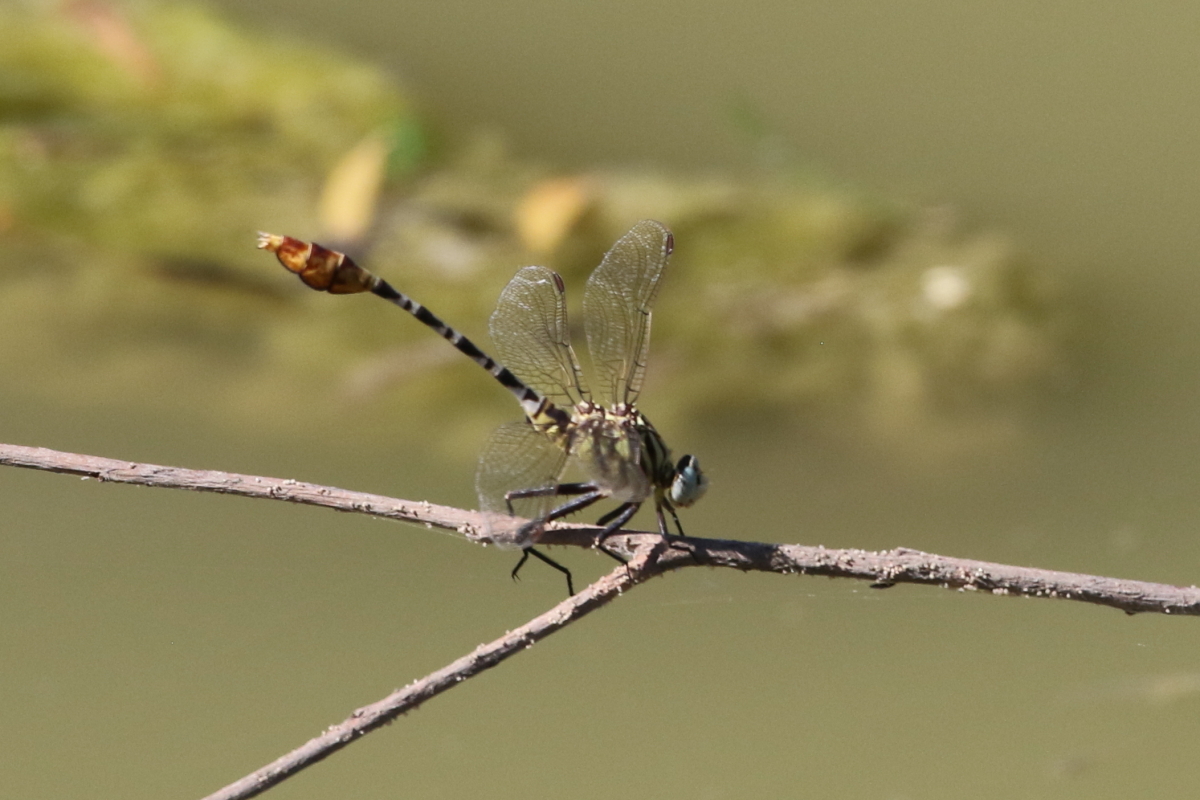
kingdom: Animalia
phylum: Arthropoda
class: Insecta
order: Odonata
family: Gomphidae
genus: Dromogomphus
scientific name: Dromogomphus spoliatus
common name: Flag-tailed spinyleg
